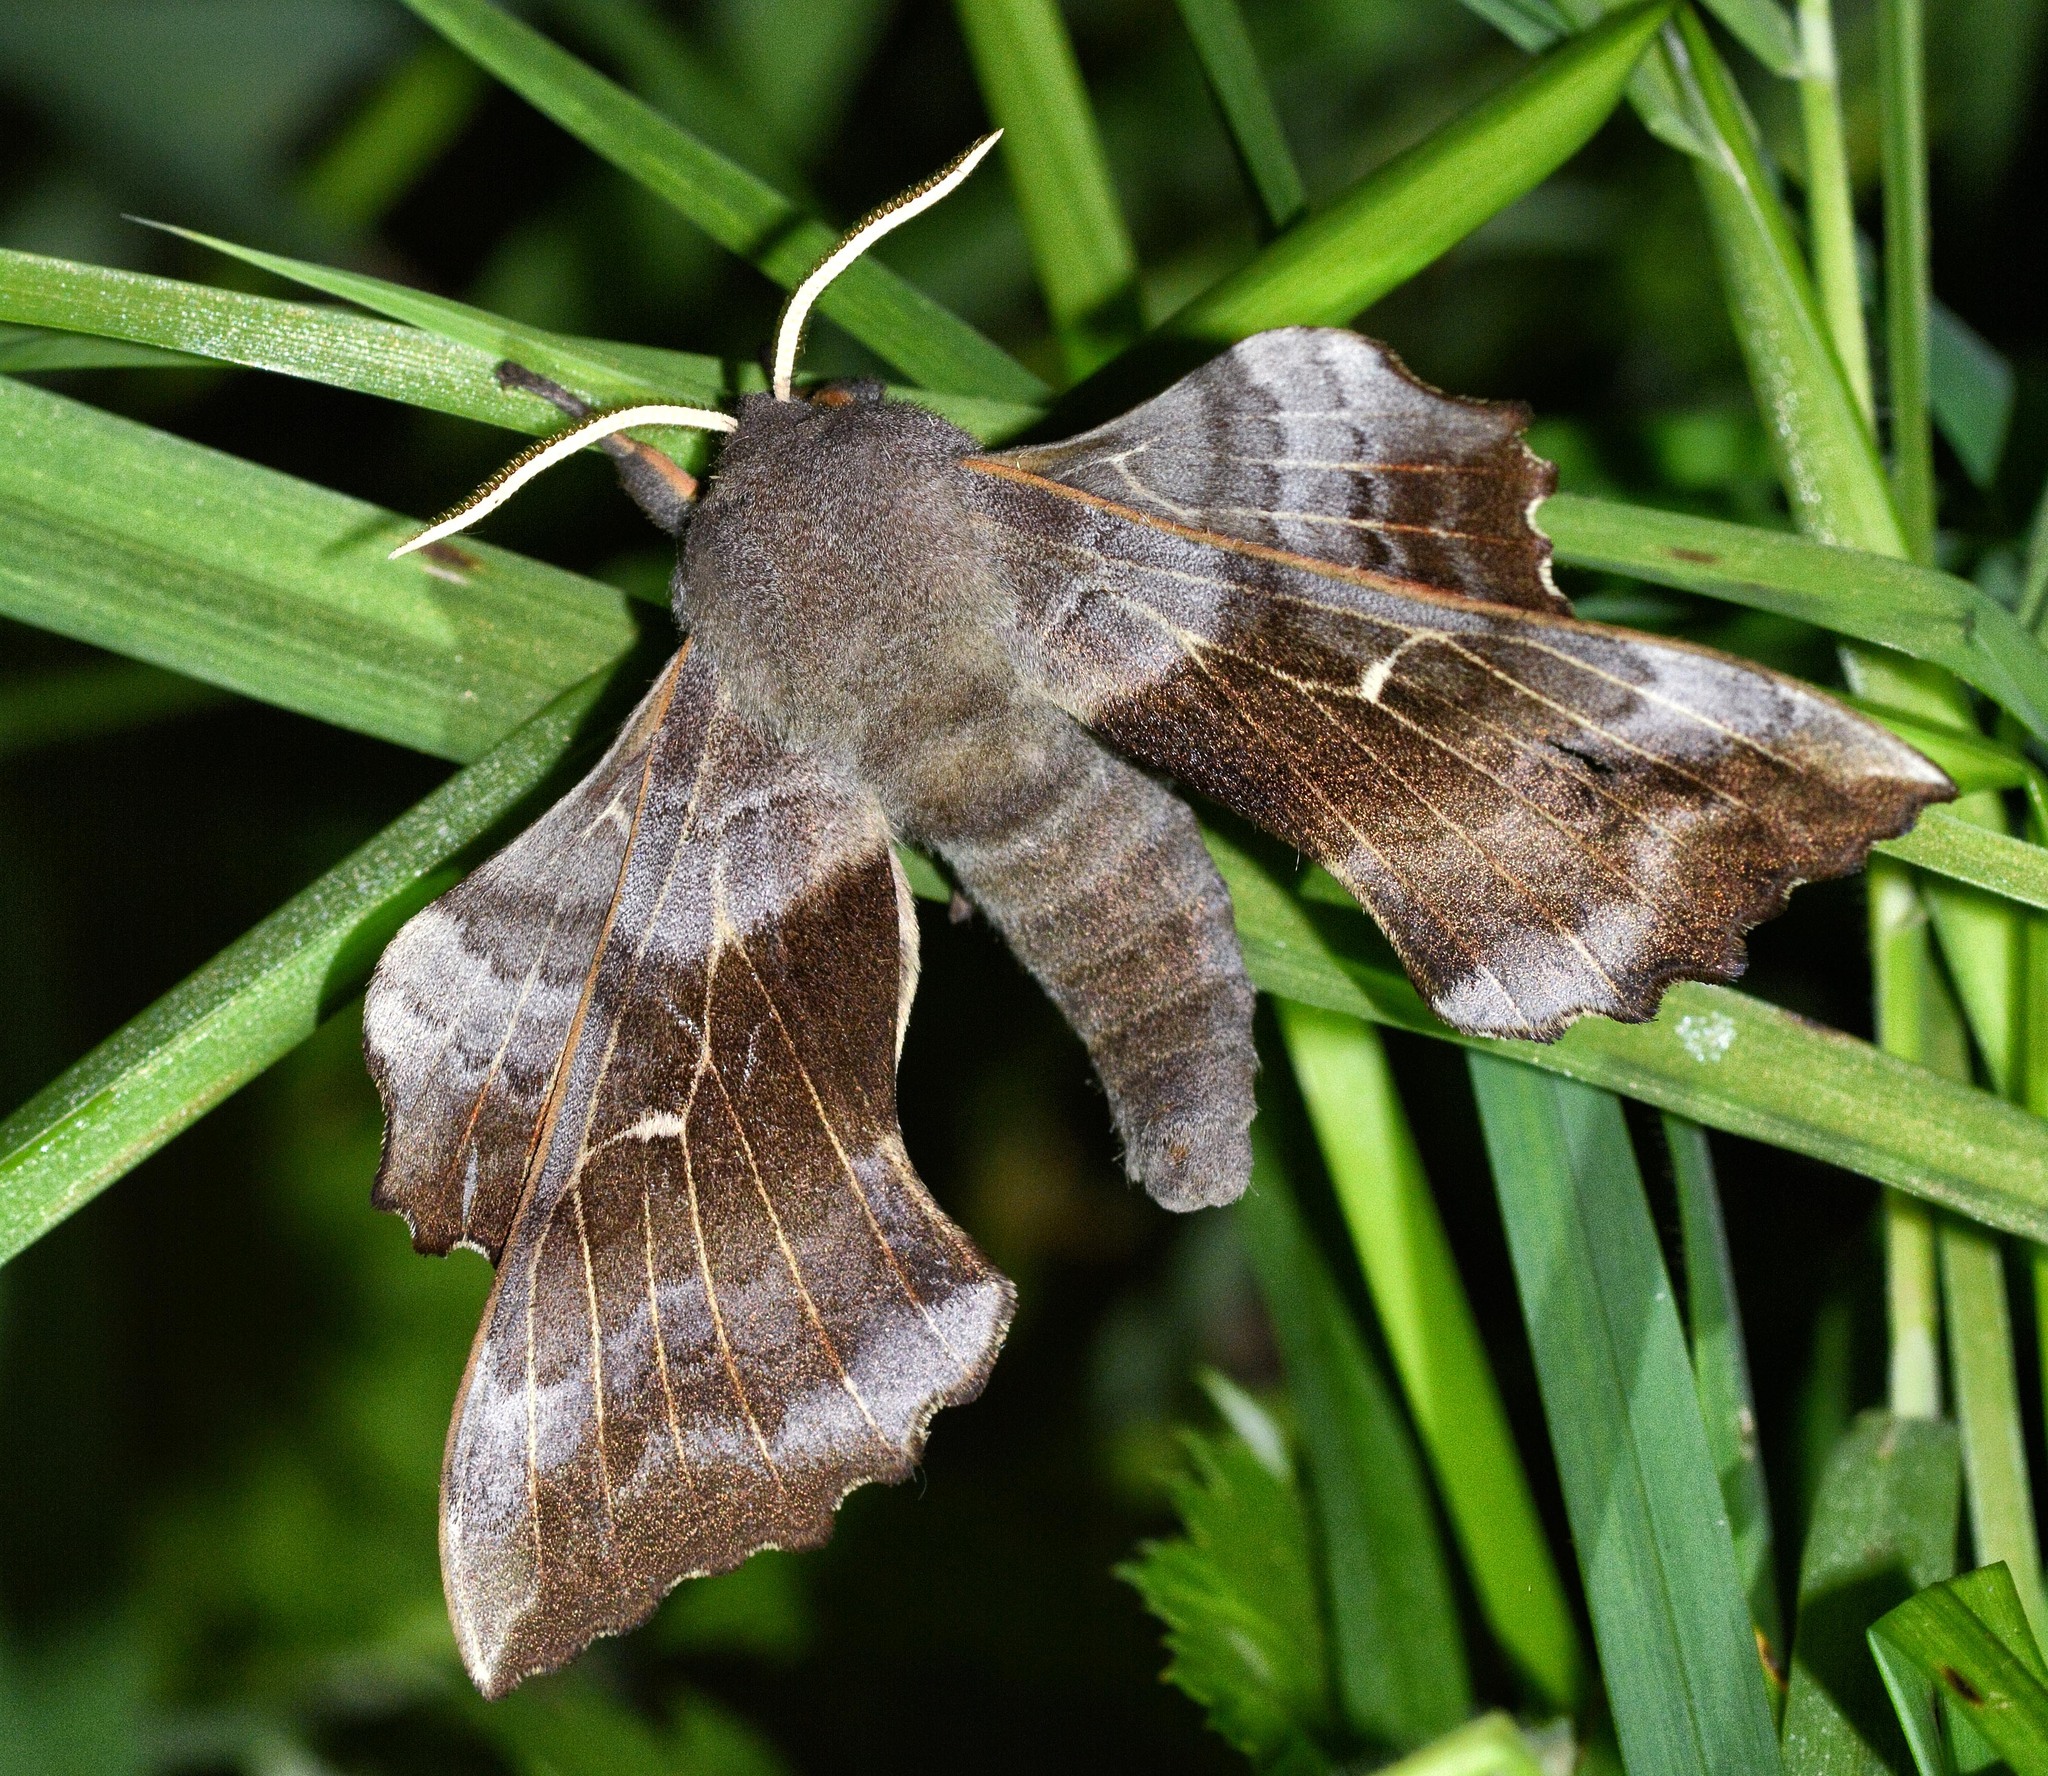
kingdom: Animalia
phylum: Arthropoda
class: Insecta
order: Lepidoptera
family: Sphingidae
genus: Laothoe
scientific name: Laothoe populi
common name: Poplar hawk-moth
